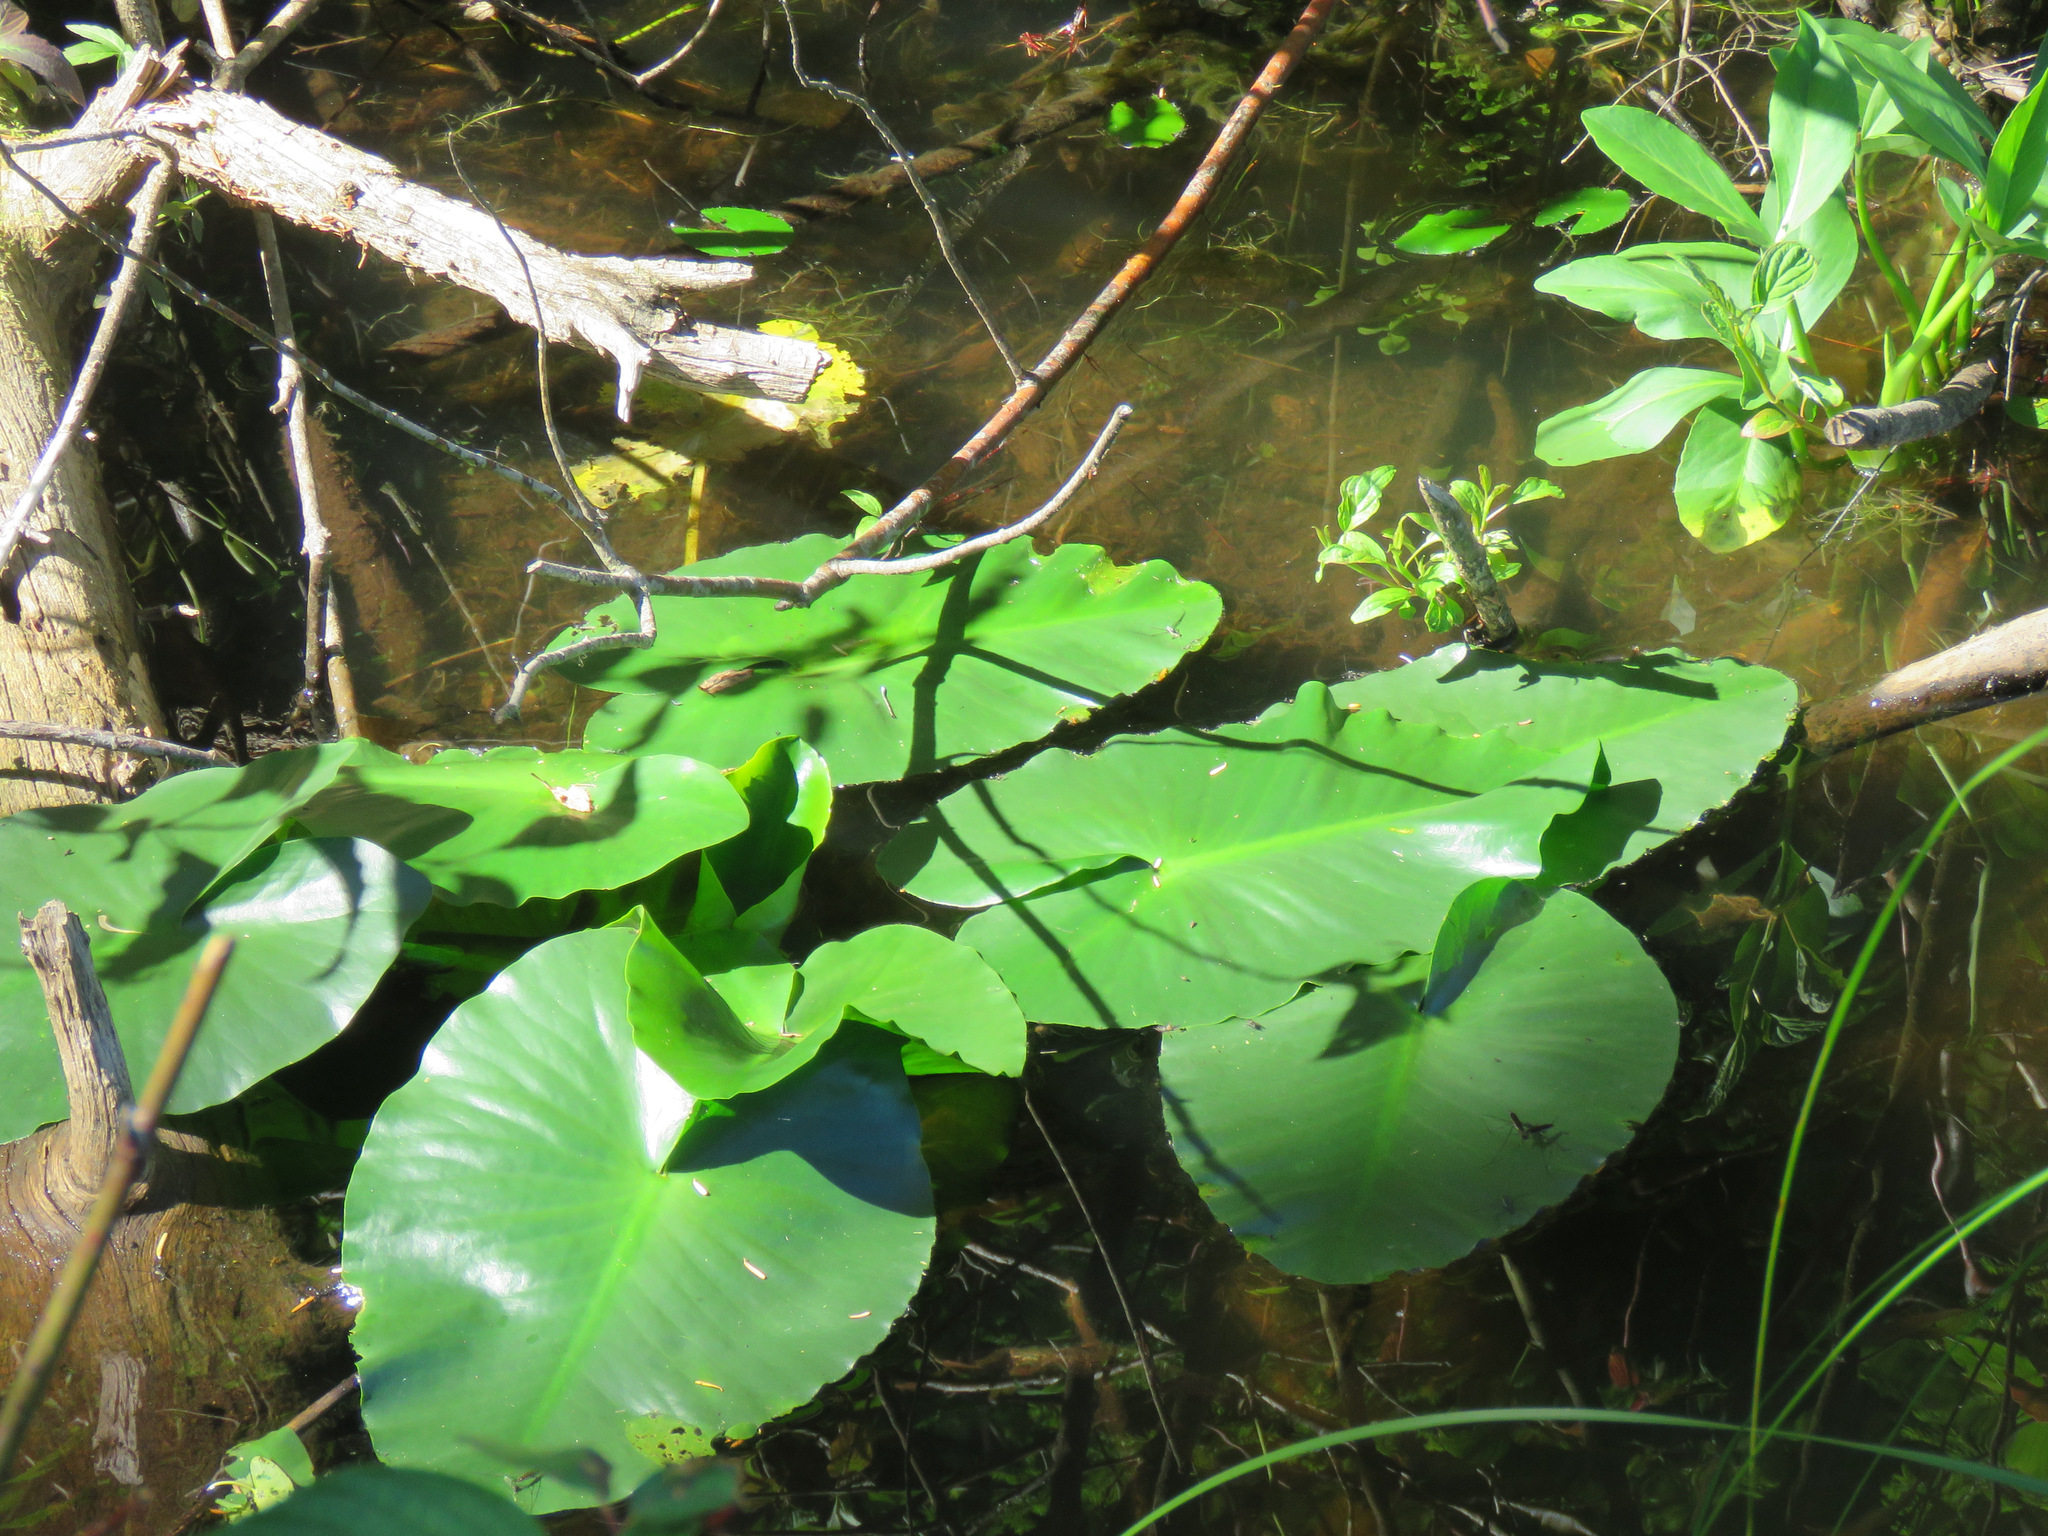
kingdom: Plantae
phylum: Tracheophyta
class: Magnoliopsida
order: Nymphaeales
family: Nymphaeaceae
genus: Nuphar
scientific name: Nuphar polysepala
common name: Rocky mountain cow-lily
